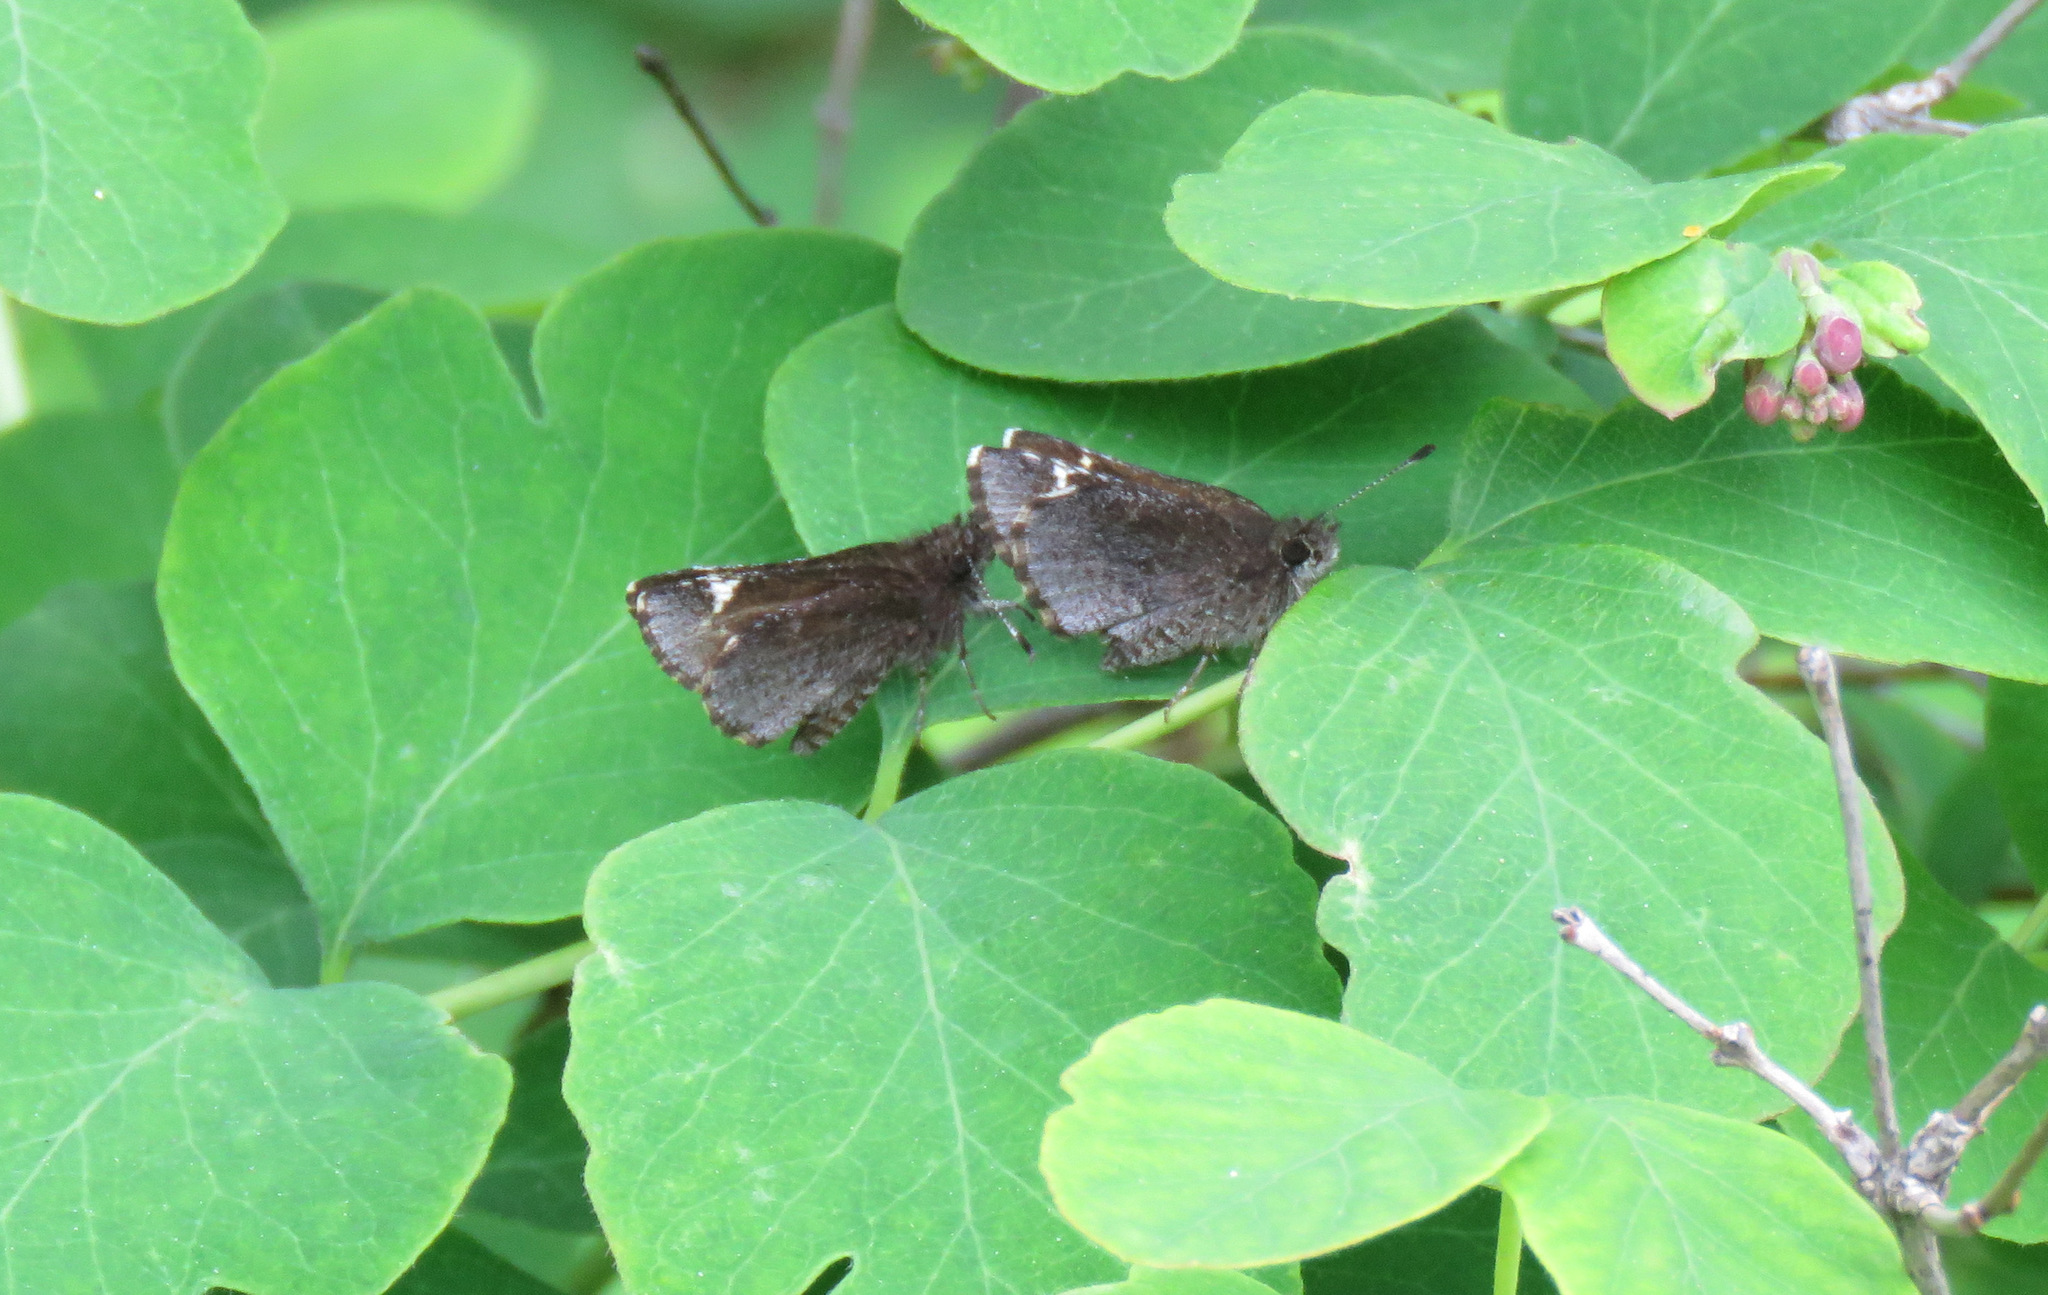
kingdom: Animalia
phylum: Arthropoda
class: Insecta
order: Lepidoptera
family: Hesperiidae
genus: Mastor
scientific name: Mastor vialis
